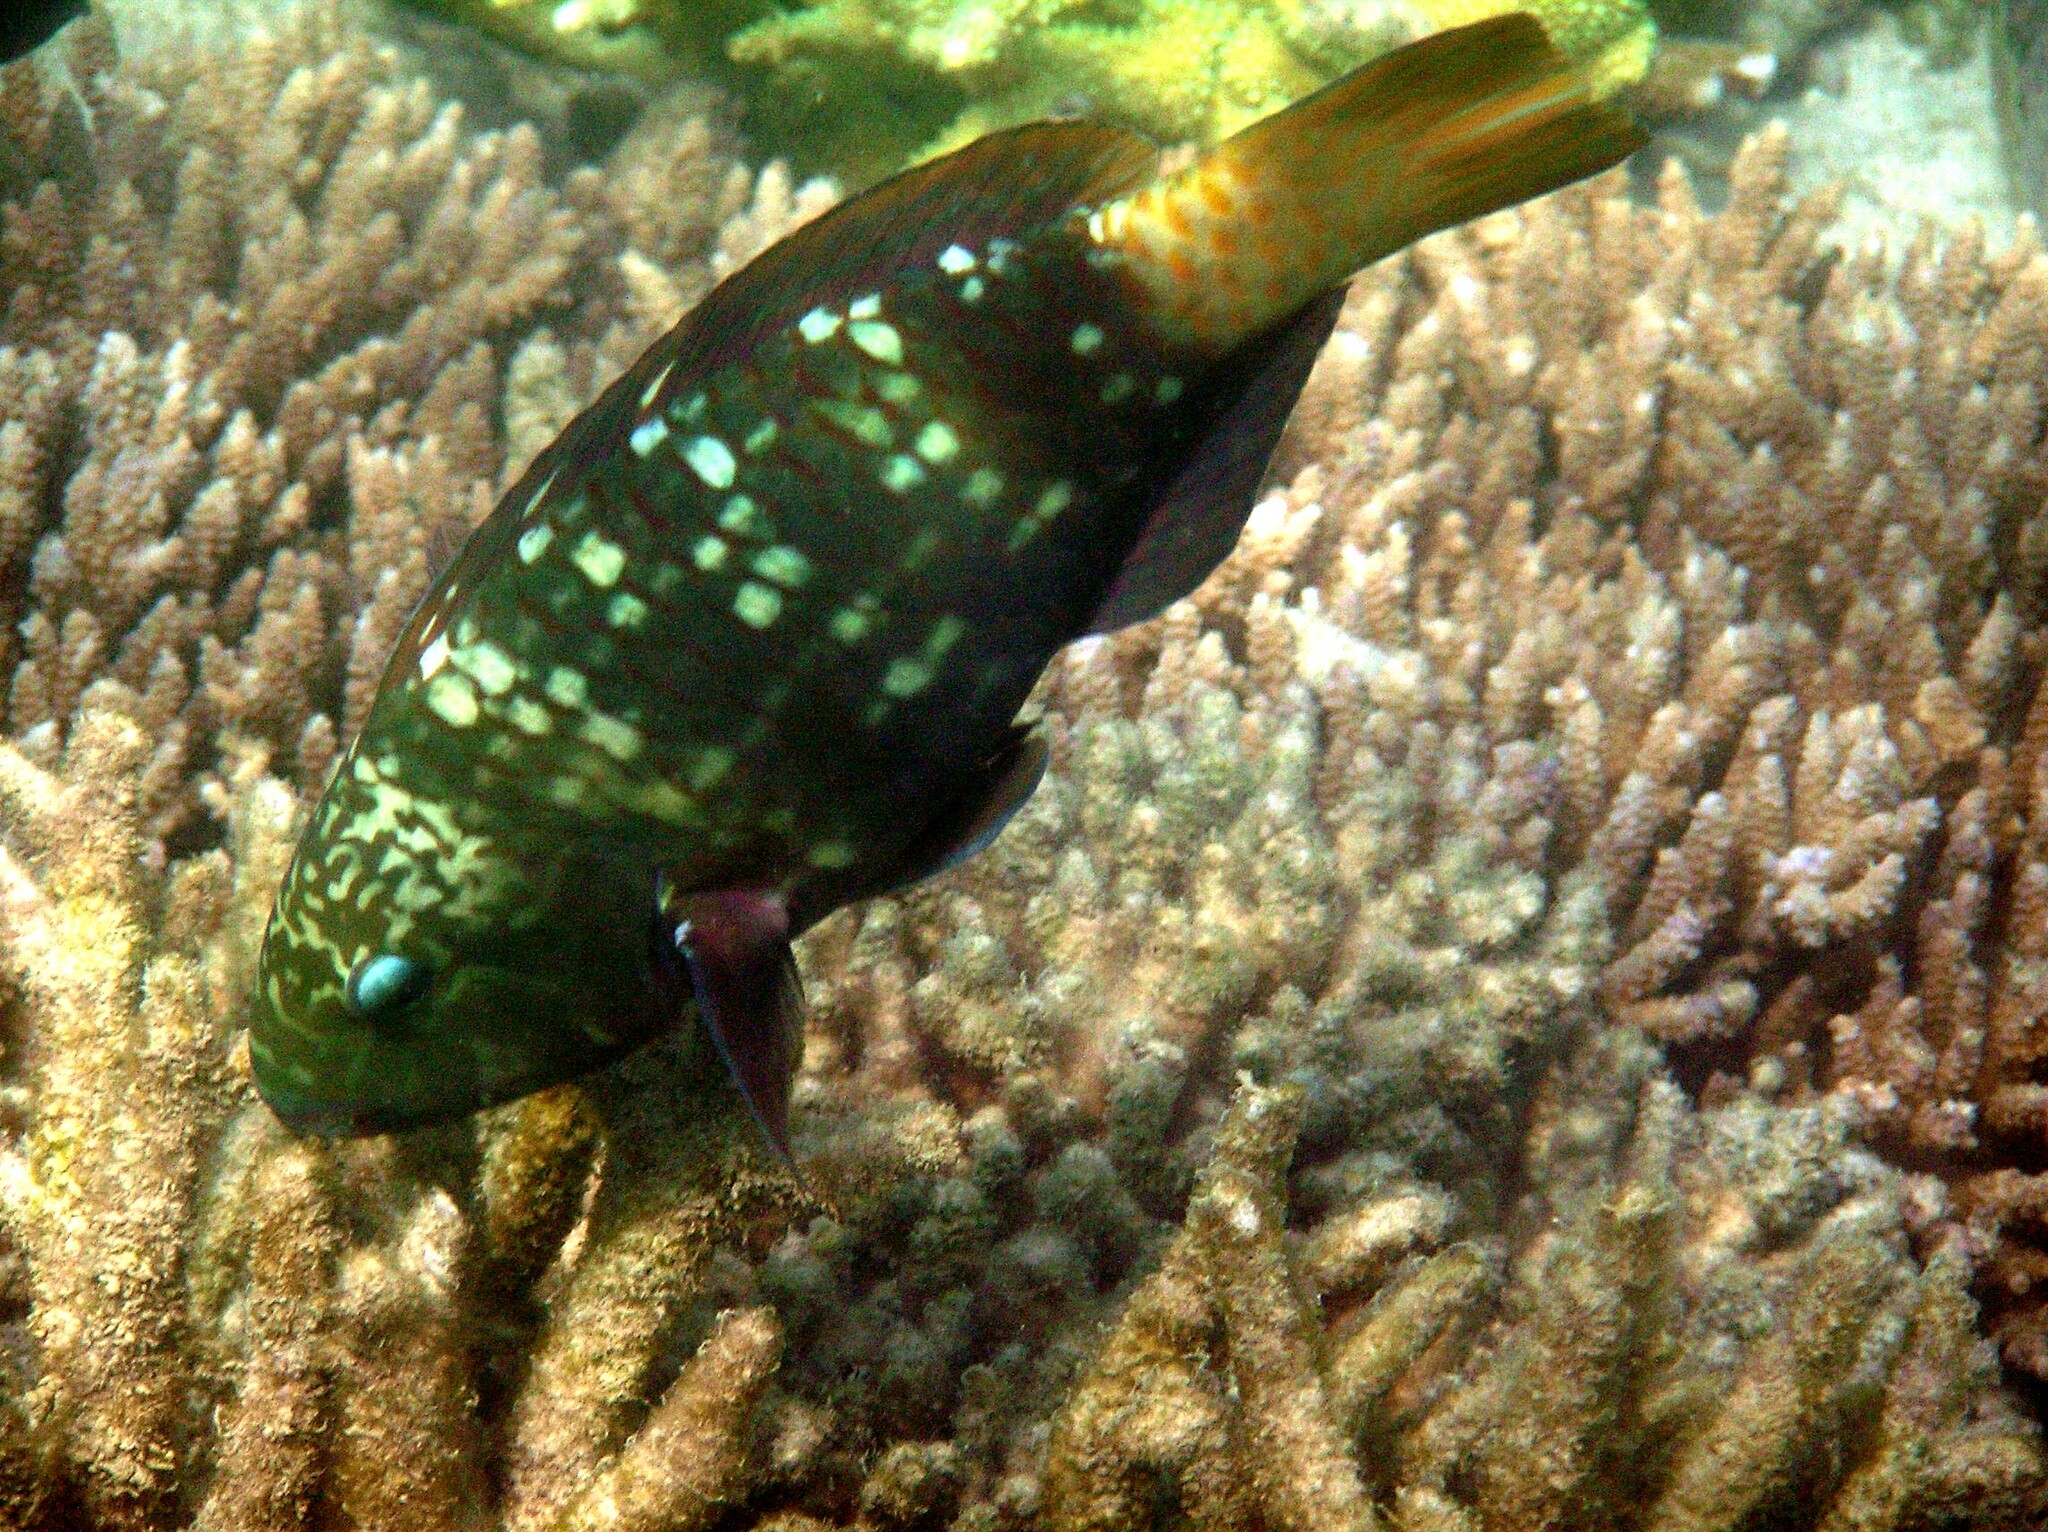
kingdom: Animalia
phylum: Chordata
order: Perciformes
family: Scaridae
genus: Chlorurus
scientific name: Chlorurus bleekeri
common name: Bleeker's parrotfish
